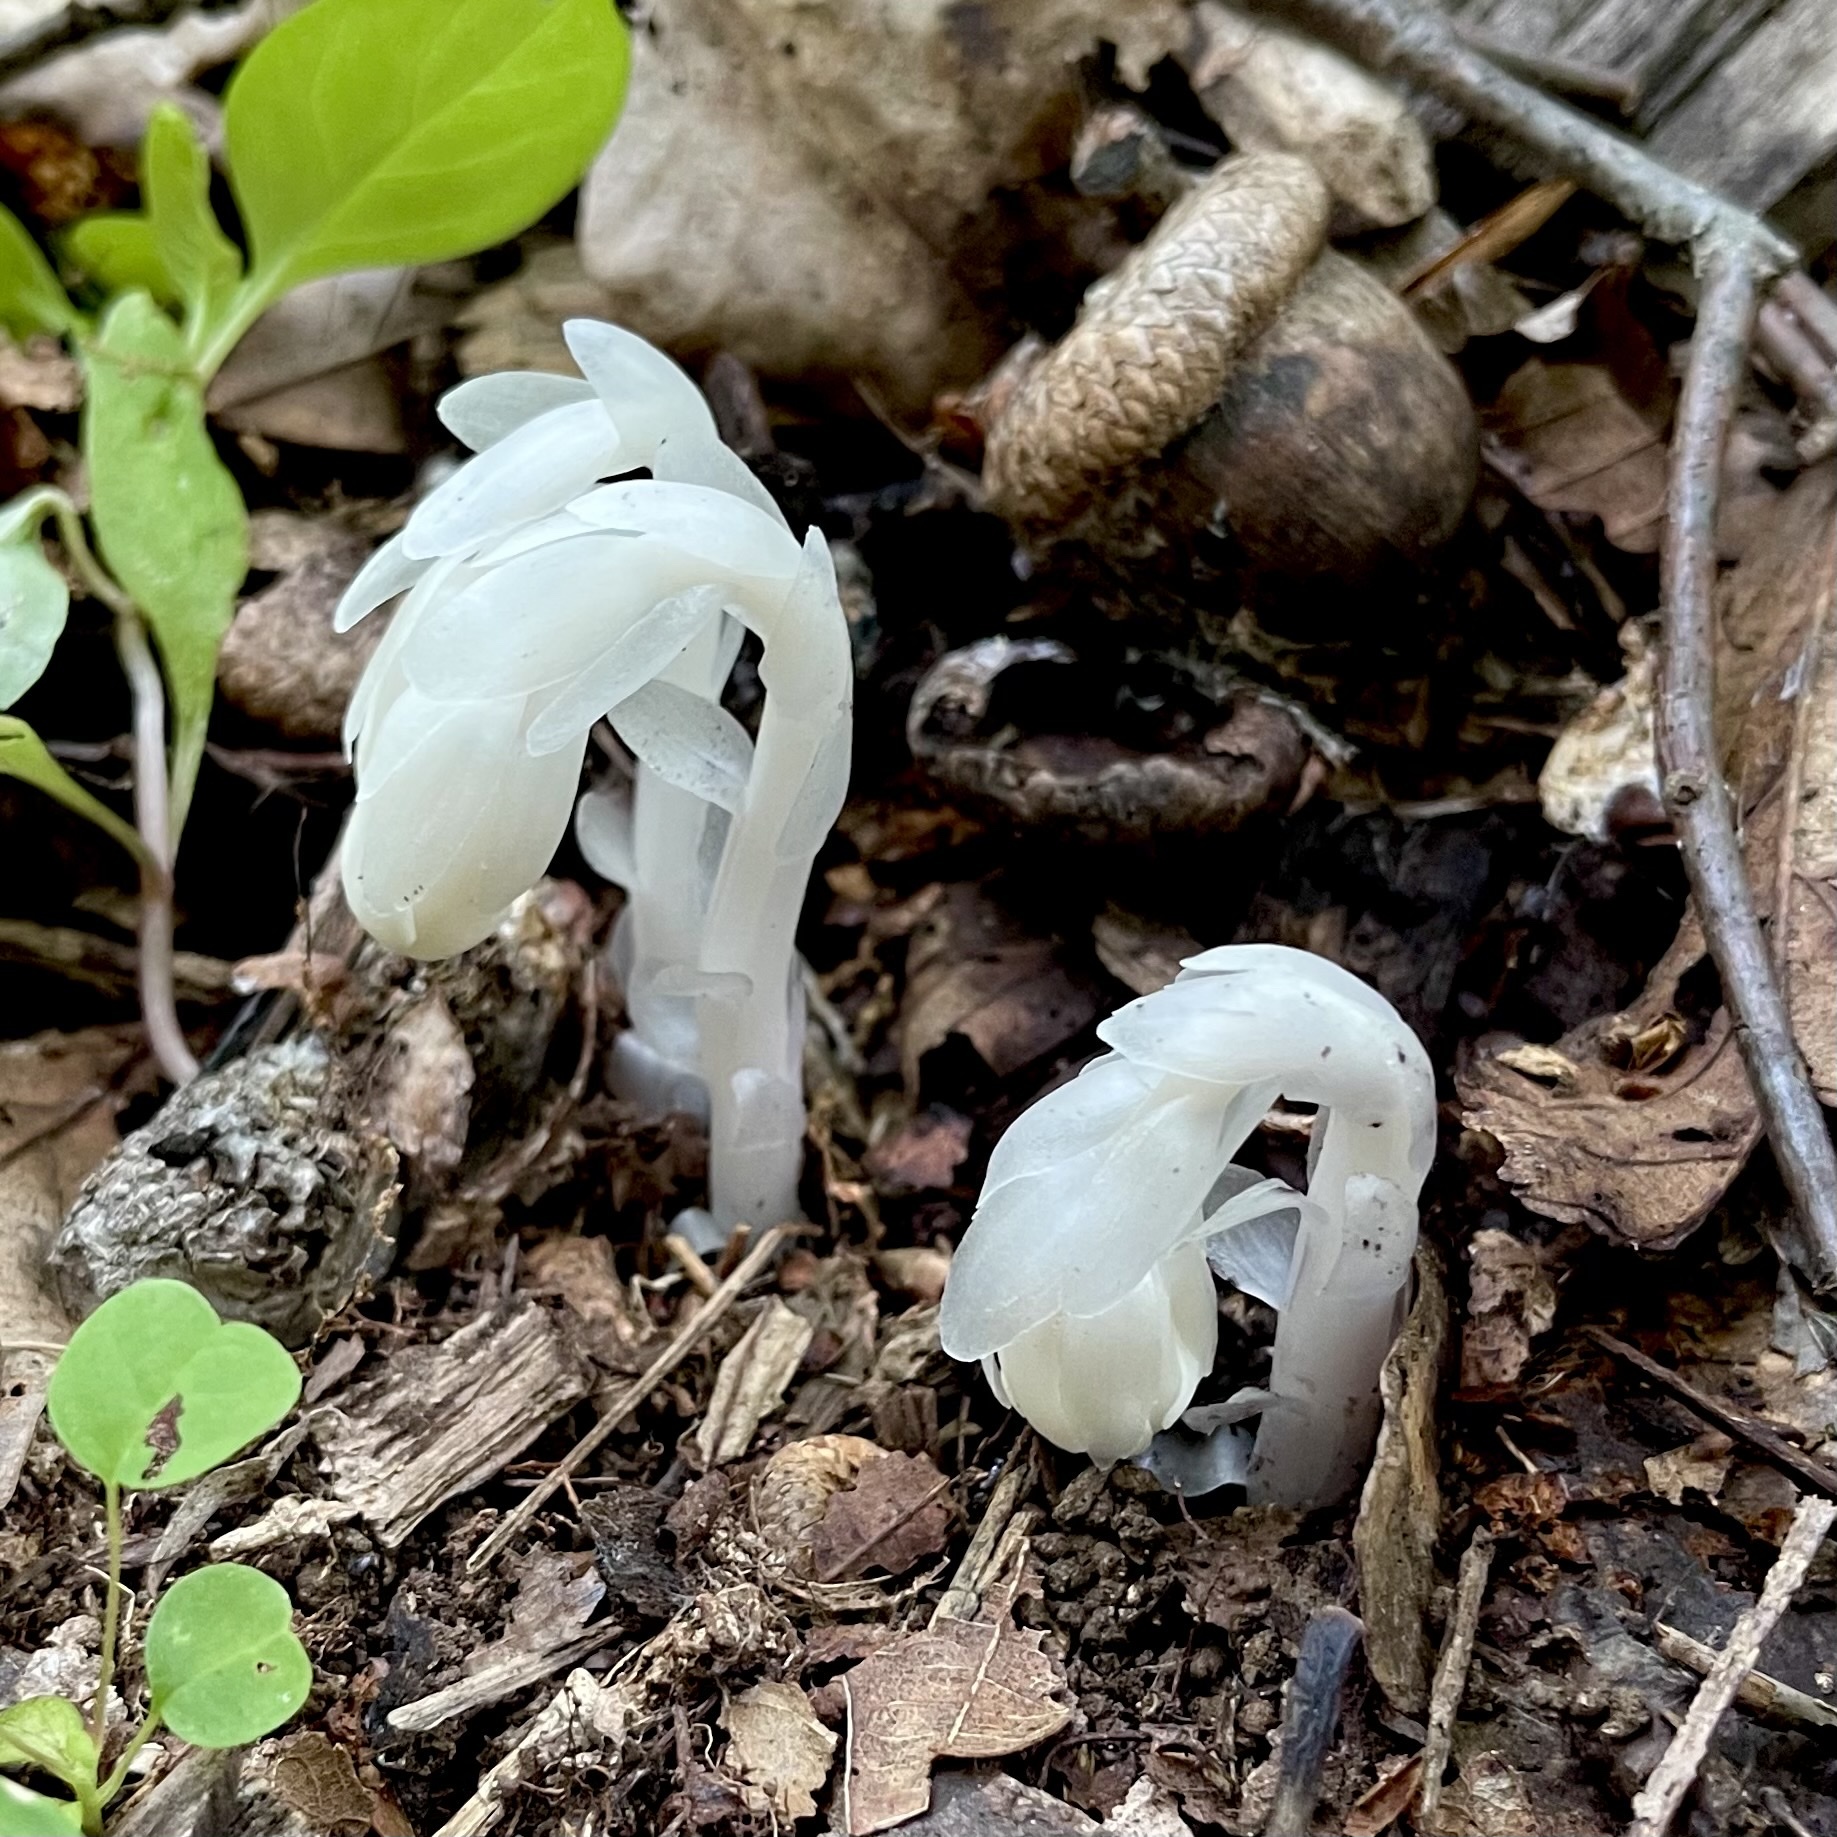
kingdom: Plantae
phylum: Tracheophyta
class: Magnoliopsida
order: Ericales
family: Ericaceae
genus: Monotropa
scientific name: Monotropa uniflora
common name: Convulsion root
